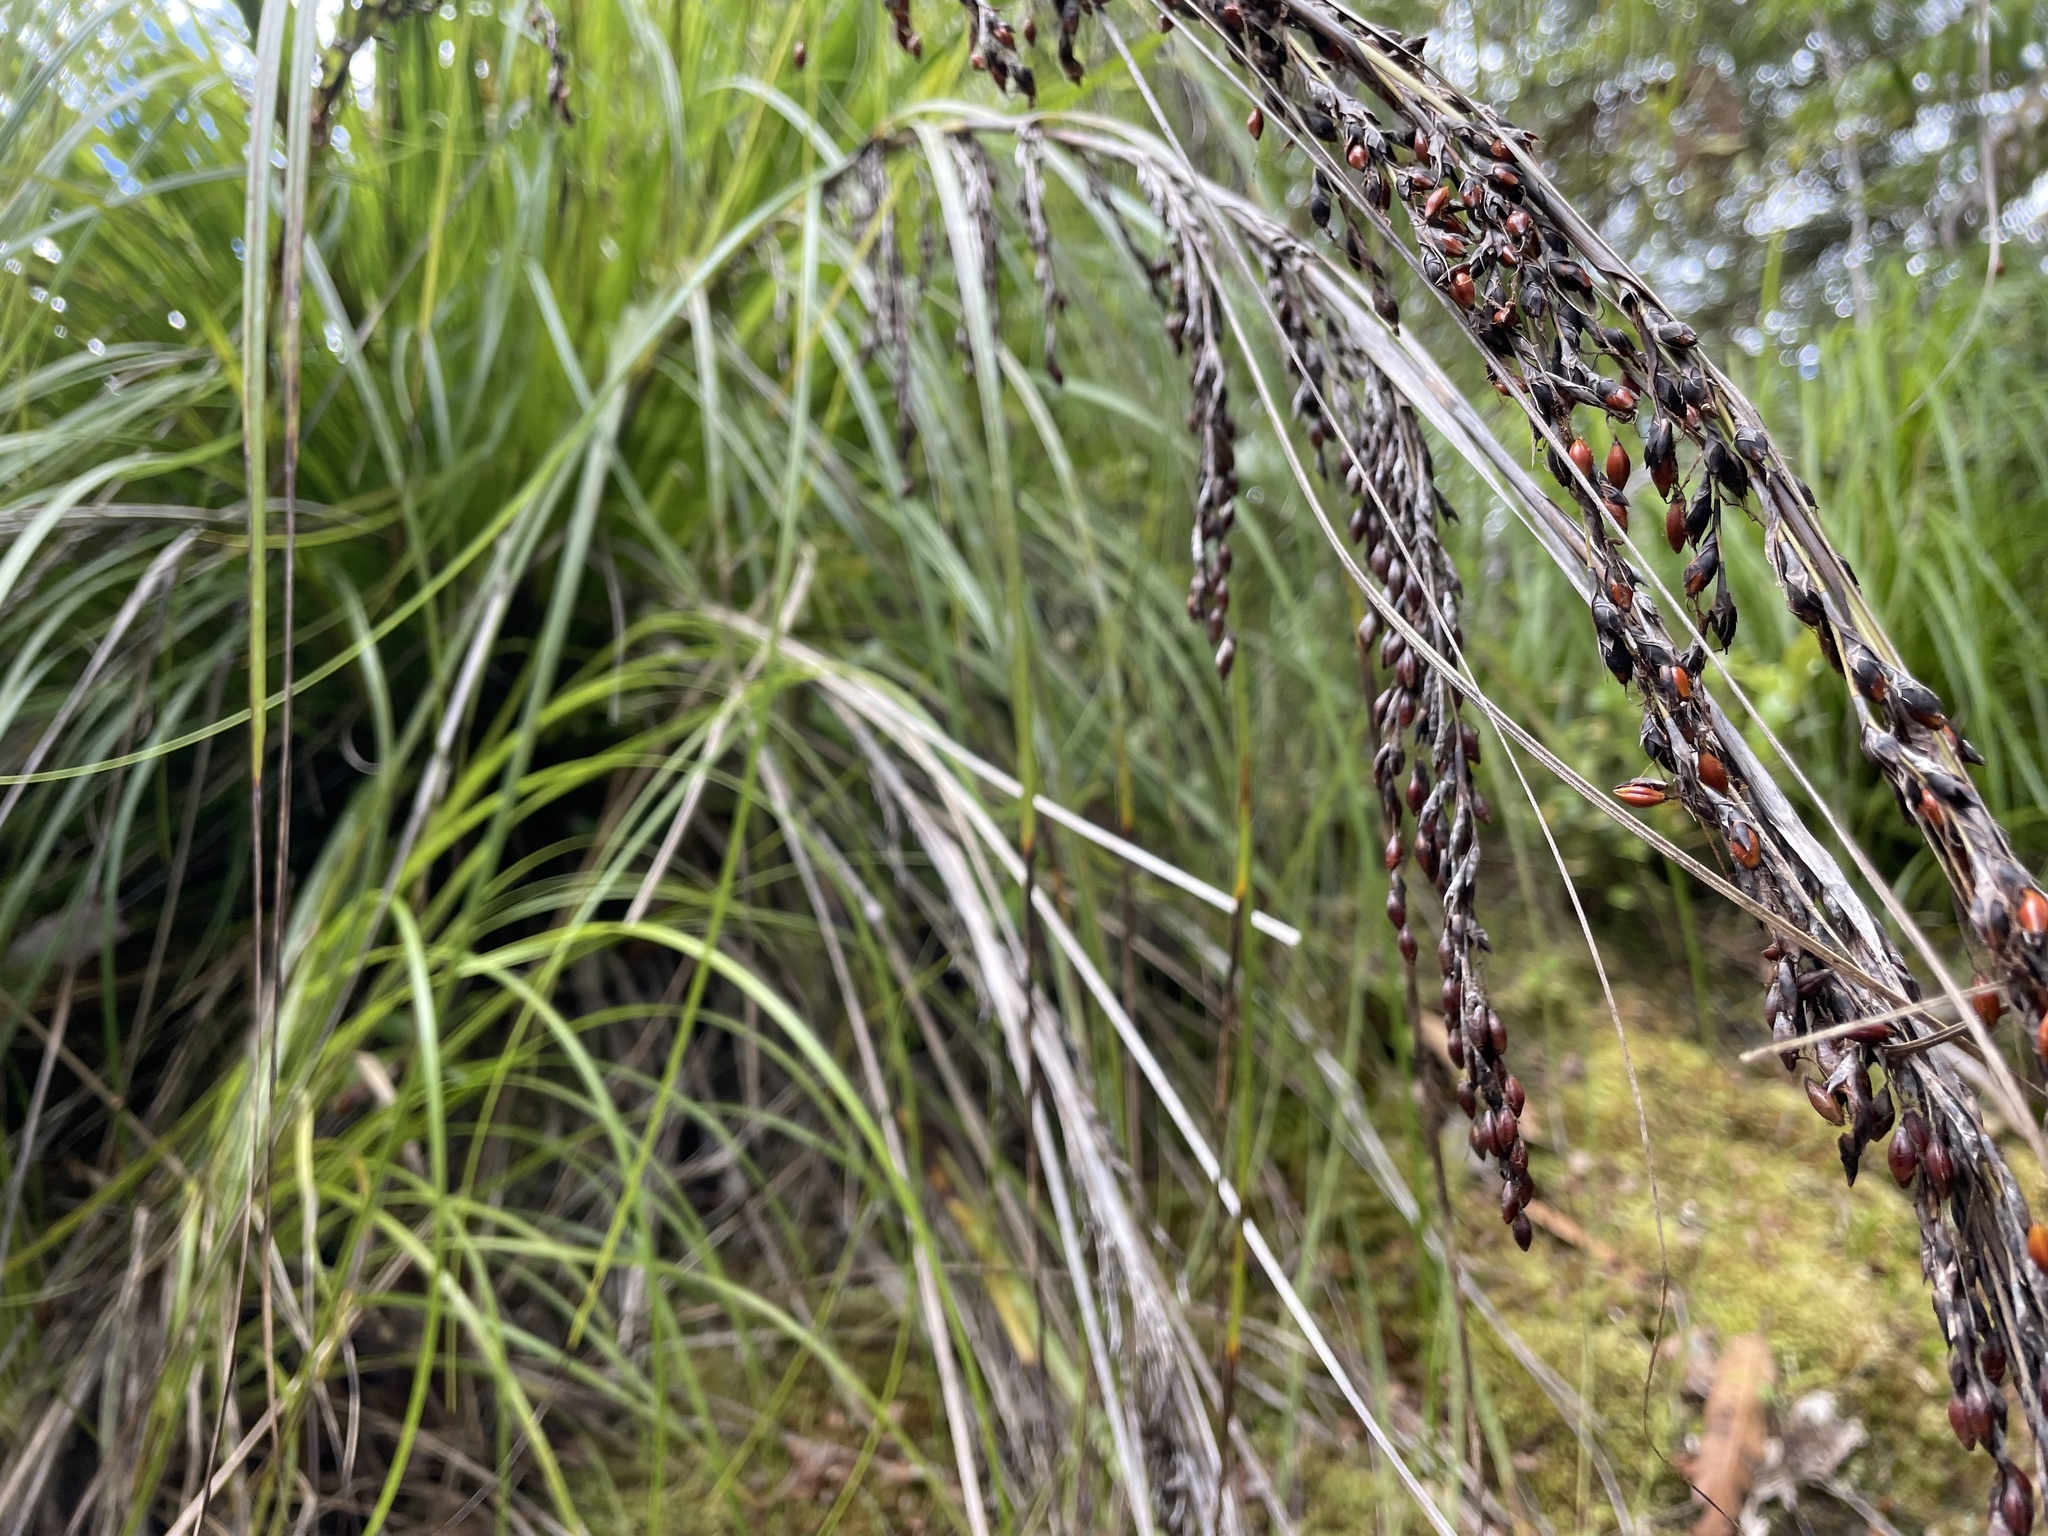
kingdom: Plantae
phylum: Tracheophyta
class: Liliopsida
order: Poales
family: Cyperaceae
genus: Gahnia
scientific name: Gahnia setifolia
